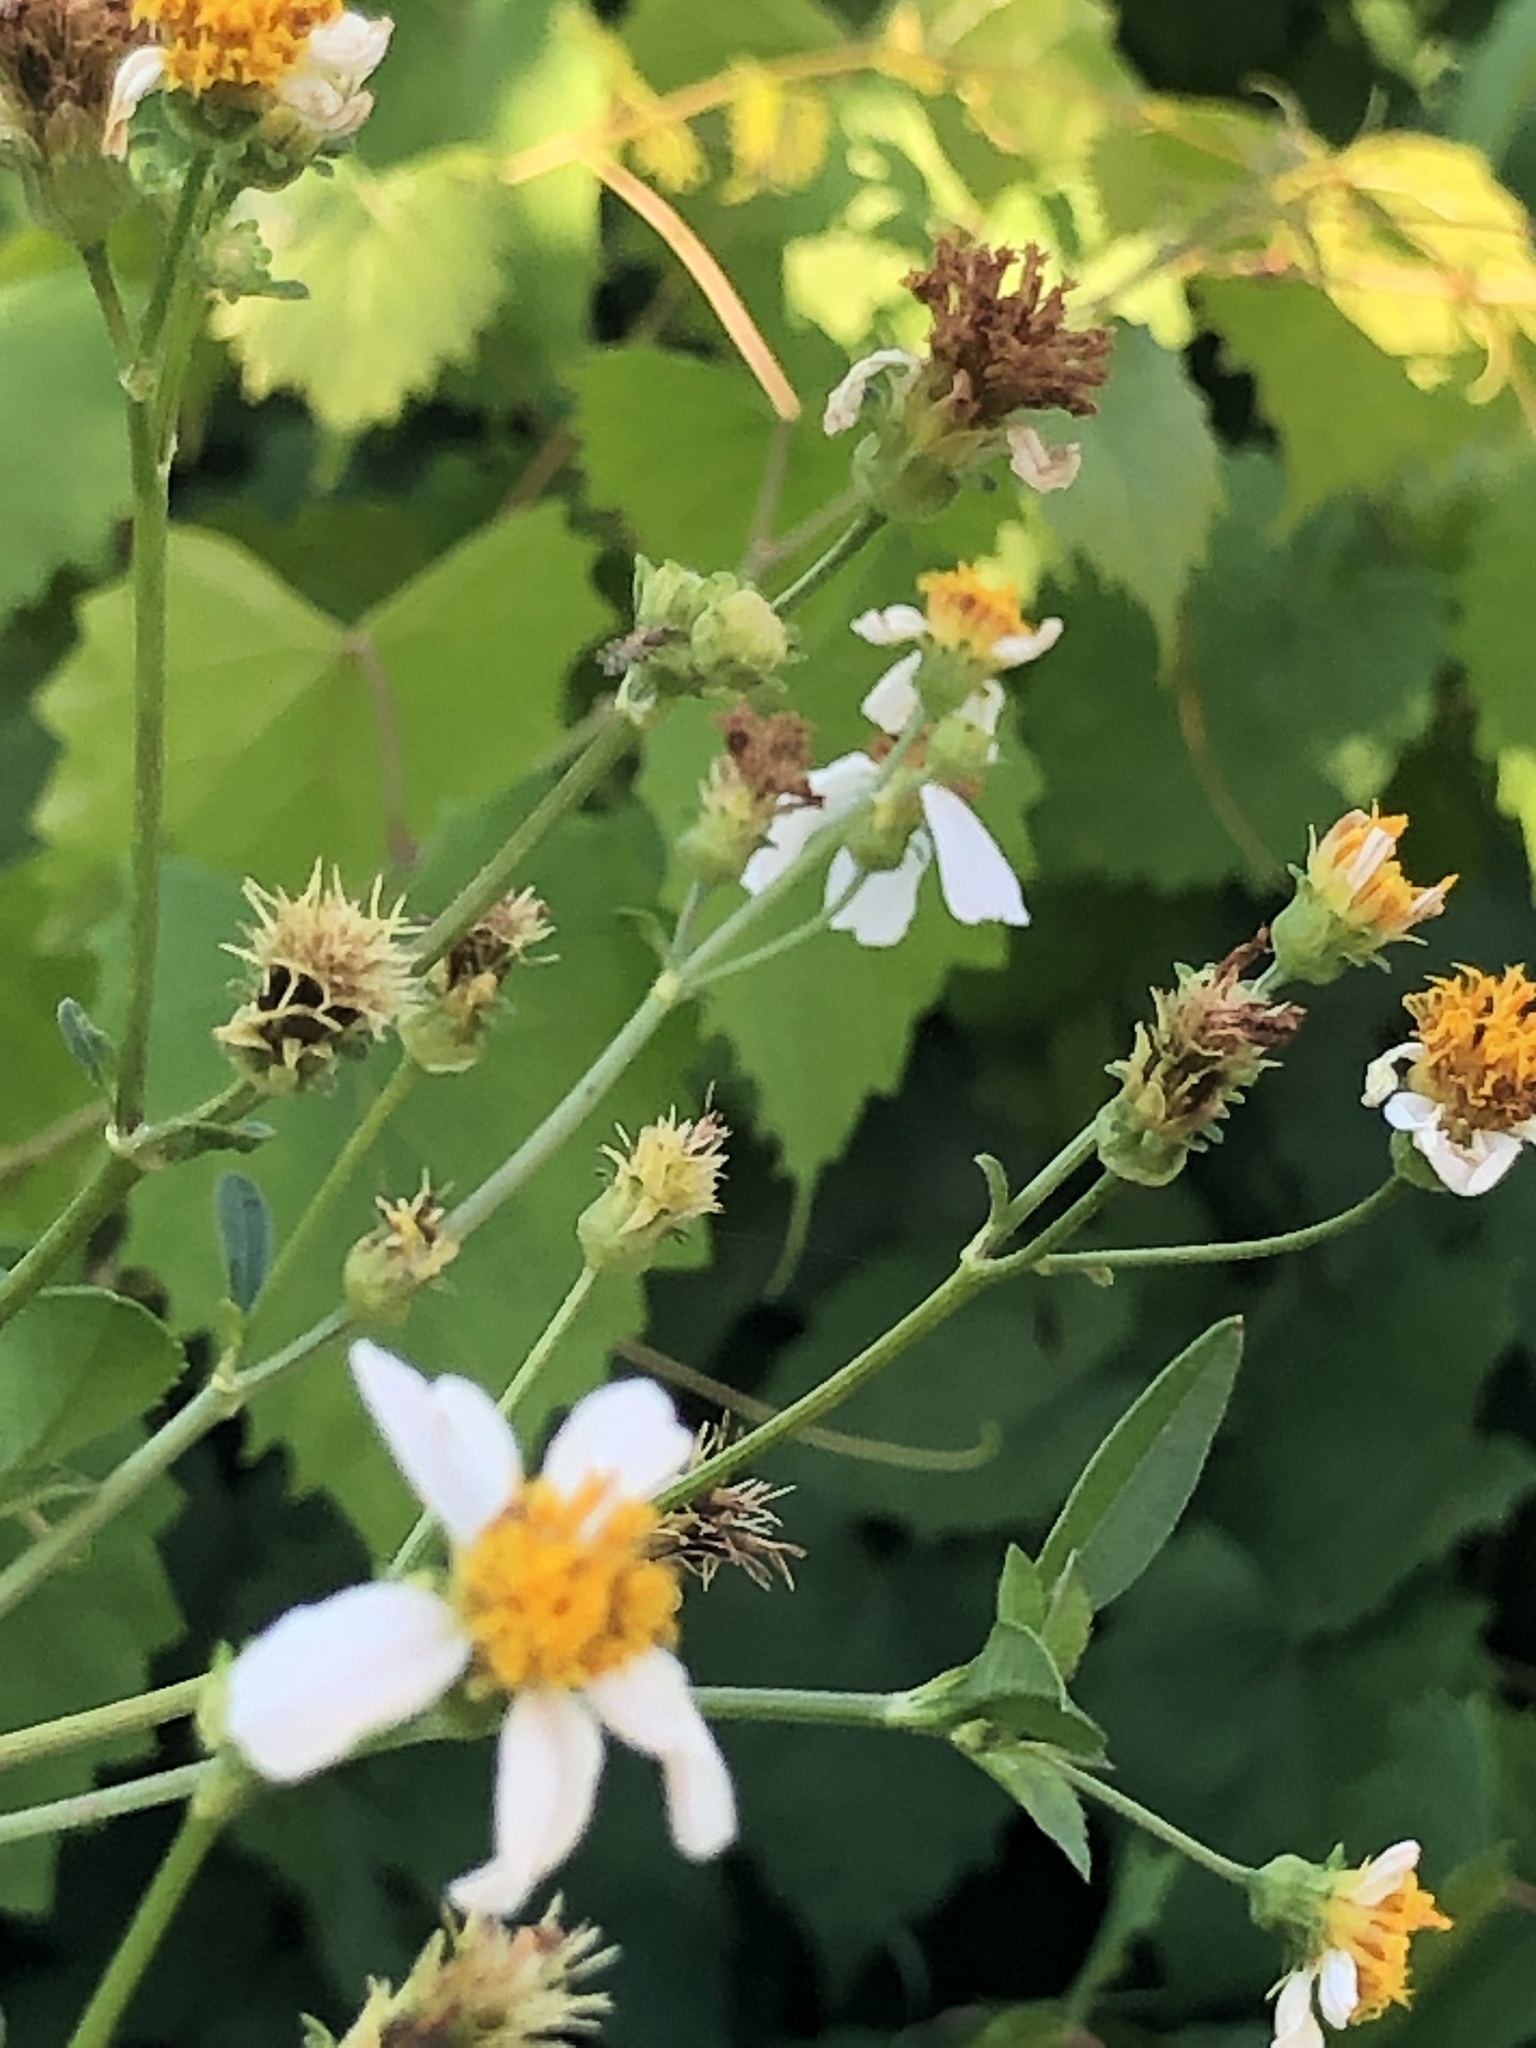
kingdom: Plantae
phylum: Tracheophyta
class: Magnoliopsida
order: Asterales
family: Asteraceae
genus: Bidens
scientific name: Bidens alba
